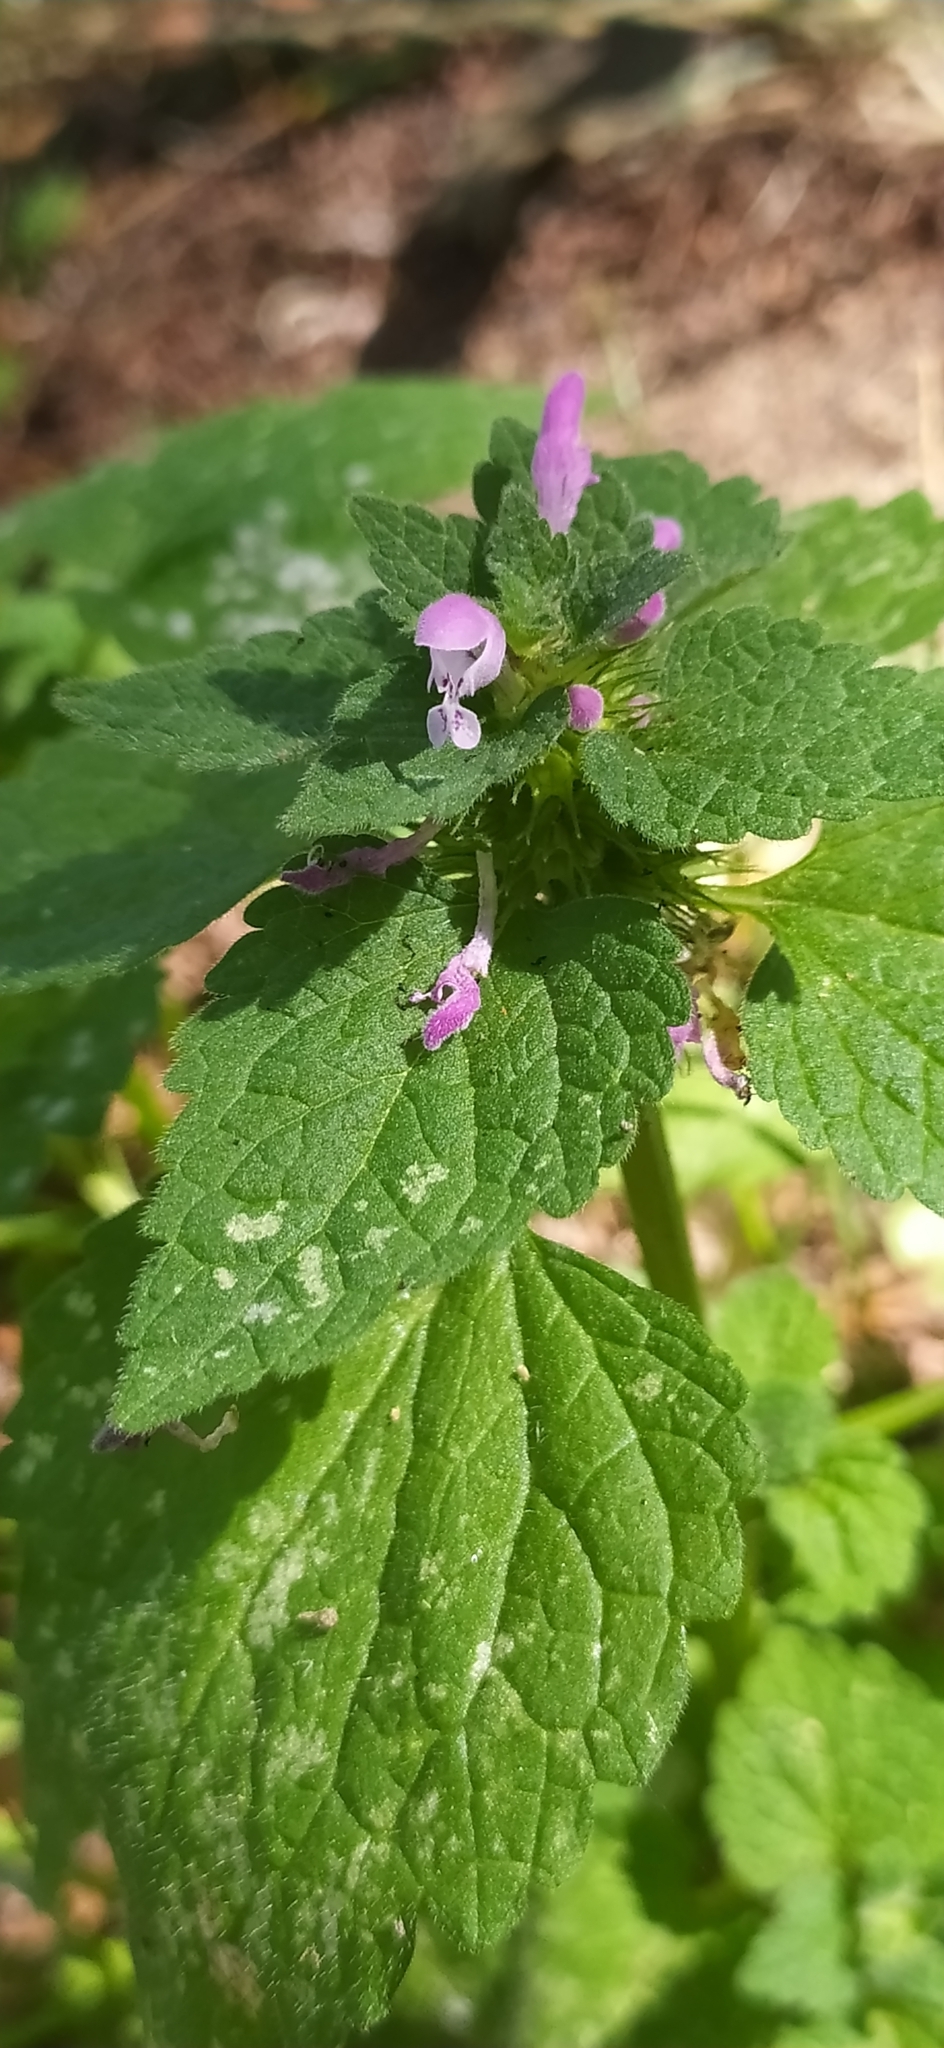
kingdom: Plantae
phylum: Tracheophyta
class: Magnoliopsida
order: Lamiales
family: Lamiaceae
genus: Lamium
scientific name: Lamium purpureum
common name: Red dead-nettle
